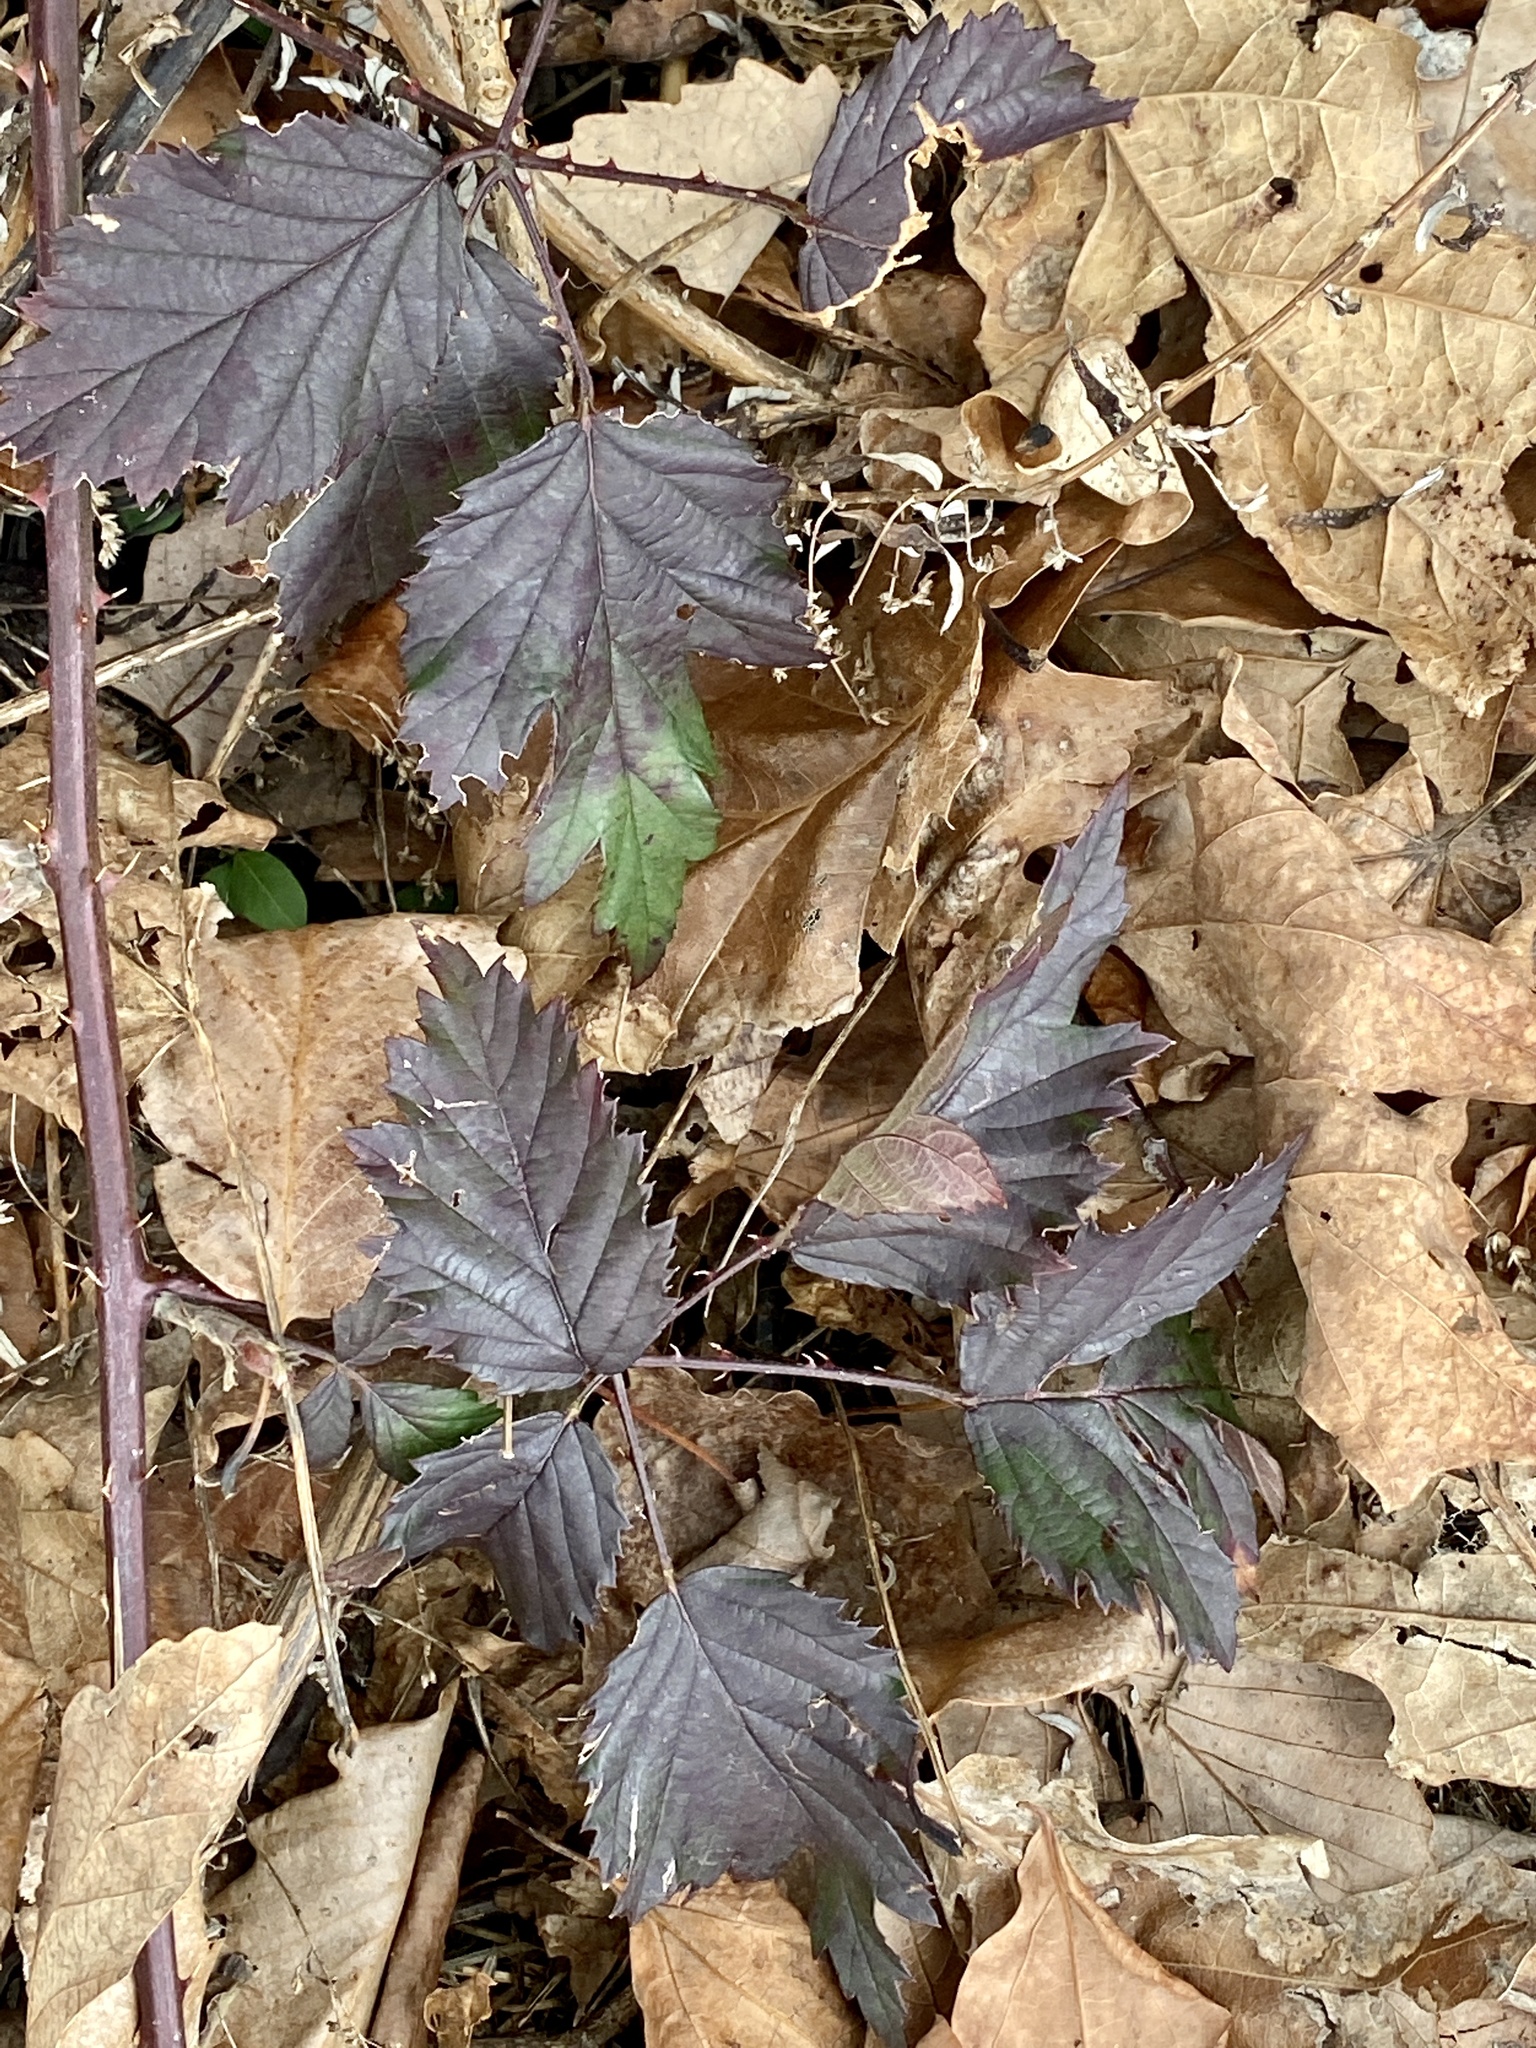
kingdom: Plantae
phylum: Tracheophyta
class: Magnoliopsida
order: Rosales
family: Rosaceae
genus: Rubus
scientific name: Rubus laciniatus
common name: Evergreen blackberry
